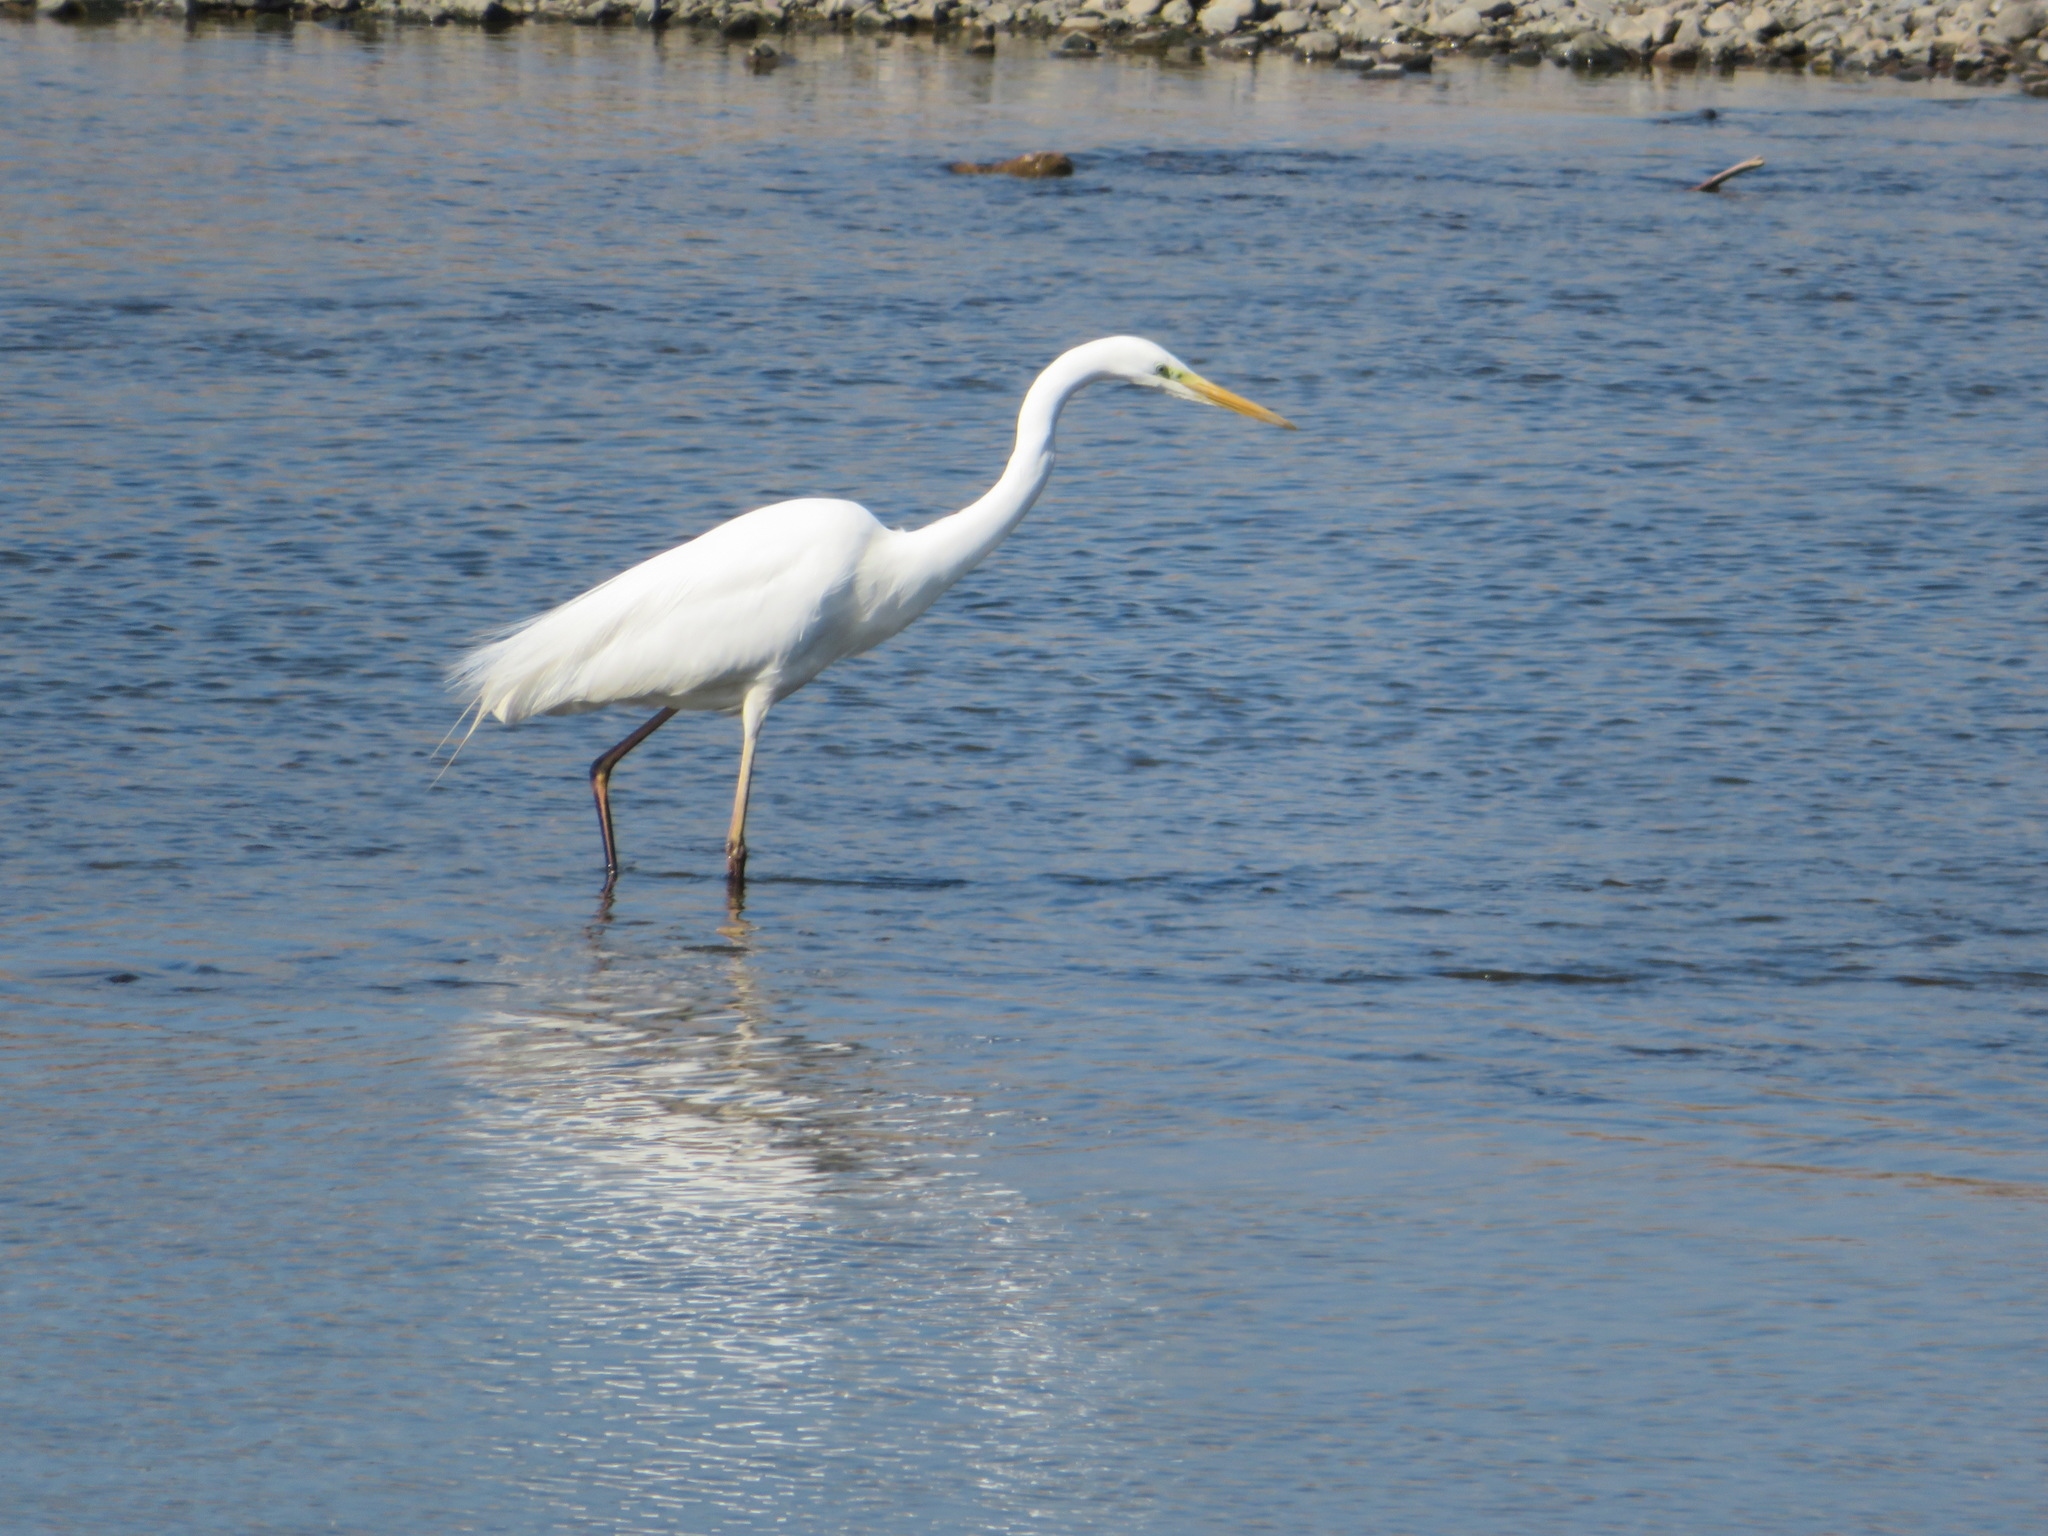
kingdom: Animalia
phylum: Chordata
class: Aves
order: Pelecaniformes
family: Ardeidae
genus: Ardea
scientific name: Ardea alba
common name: Great egret
